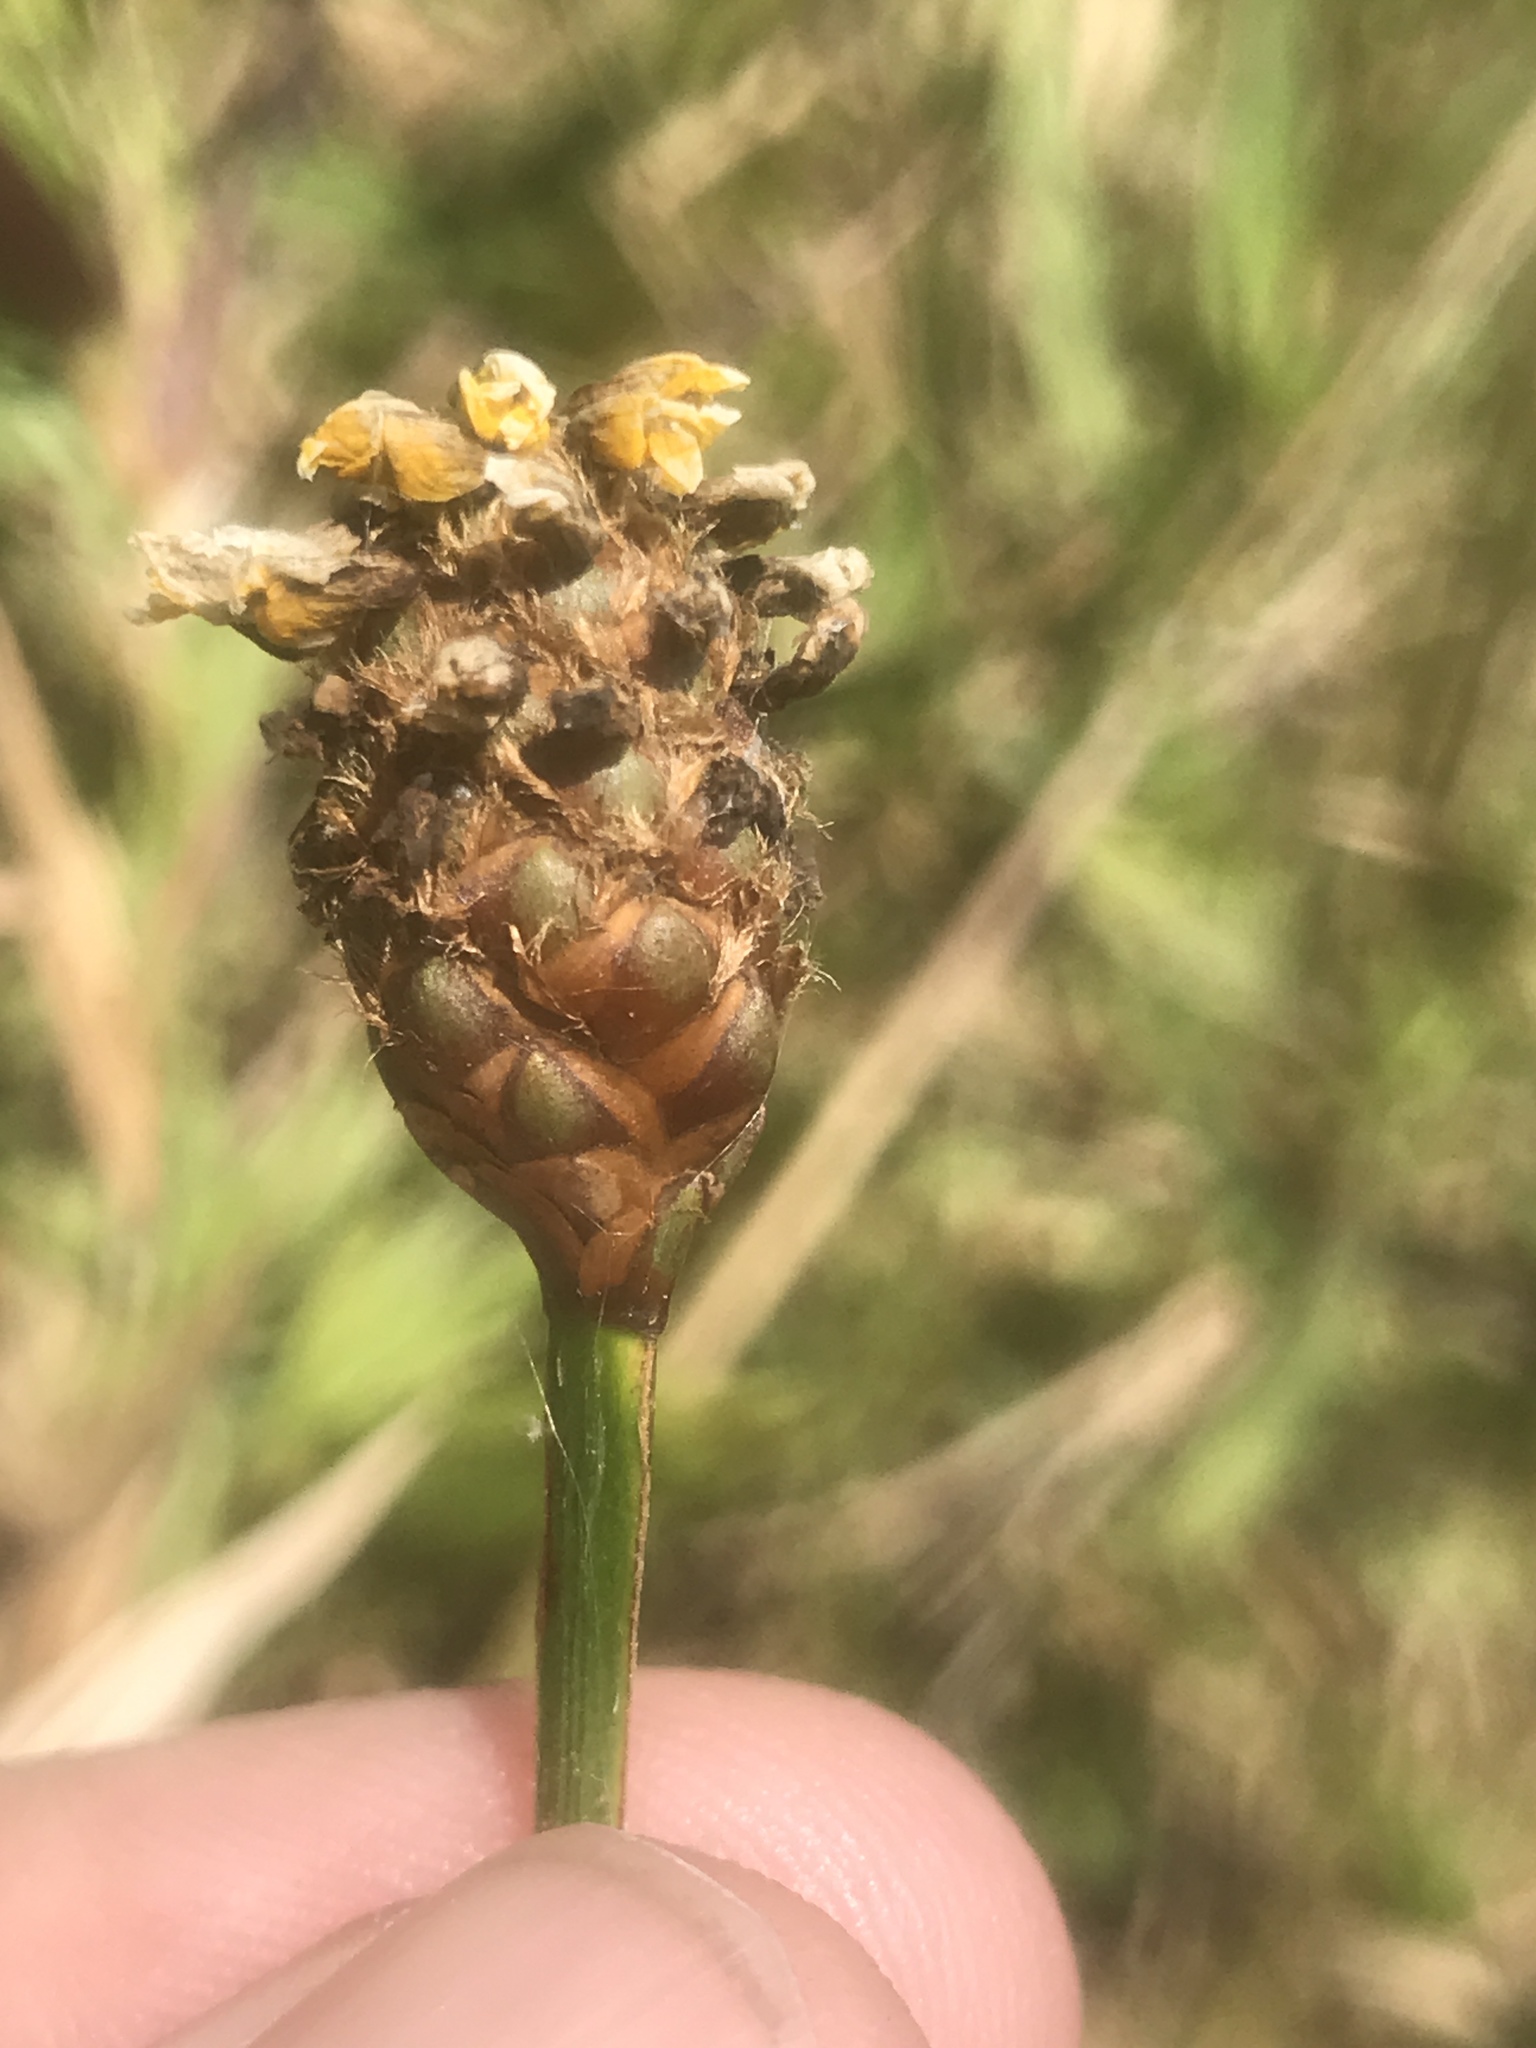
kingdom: Plantae
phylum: Tracheophyta
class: Liliopsida
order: Poales
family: Xyridaceae
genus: Xyris
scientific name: Xyris fimbriata
